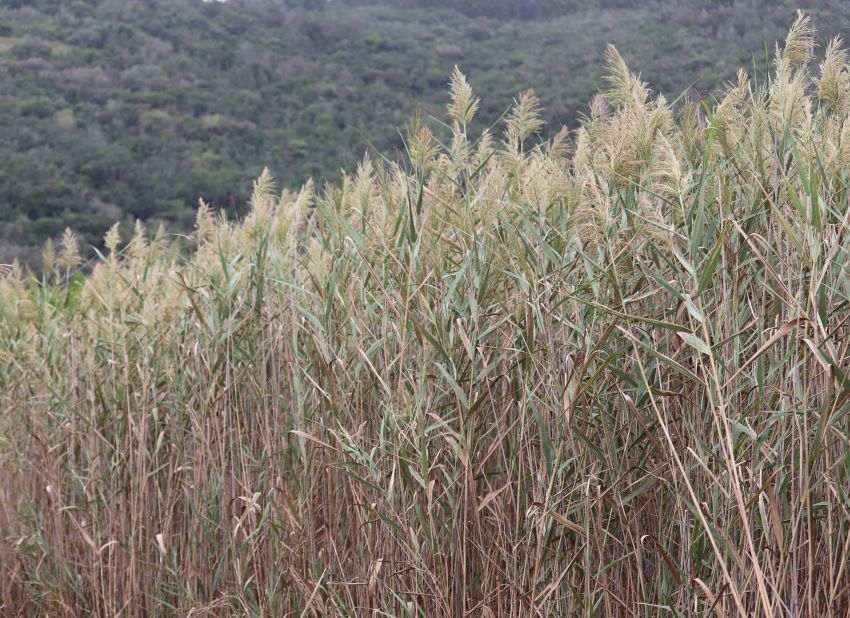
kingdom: Plantae
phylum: Tracheophyta
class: Liliopsida
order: Poales
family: Poaceae
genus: Phragmites
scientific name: Phragmites australis
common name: Common reed
